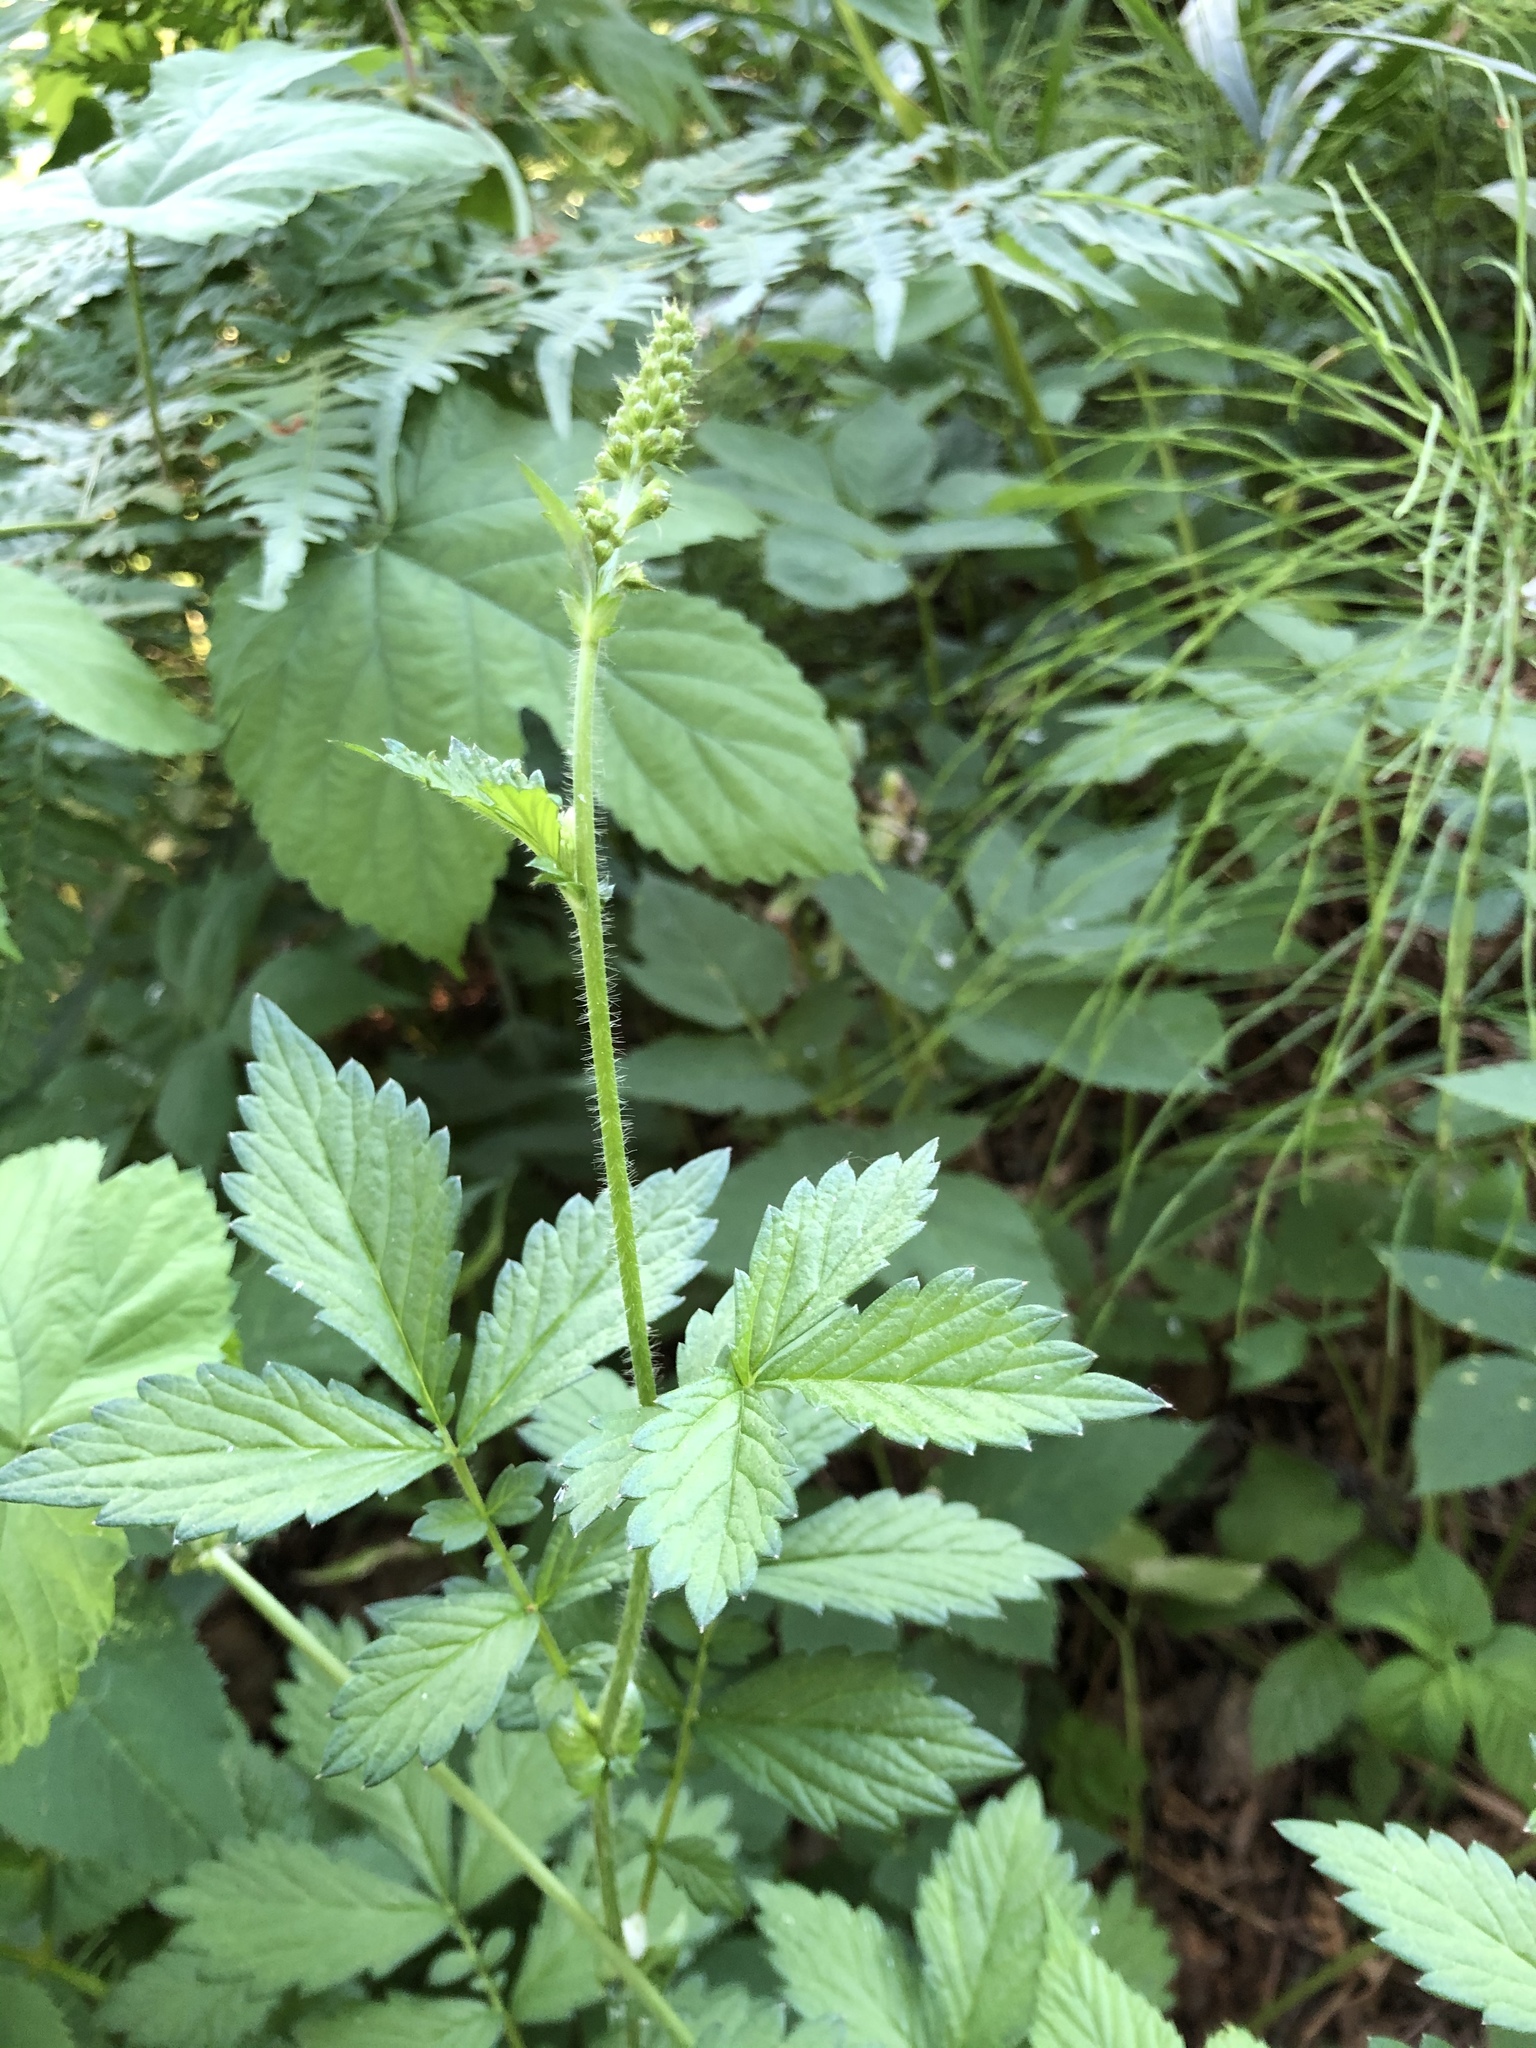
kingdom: Plantae
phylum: Tracheophyta
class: Magnoliopsida
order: Rosales
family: Rosaceae
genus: Agrimonia
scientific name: Agrimonia pilosa
